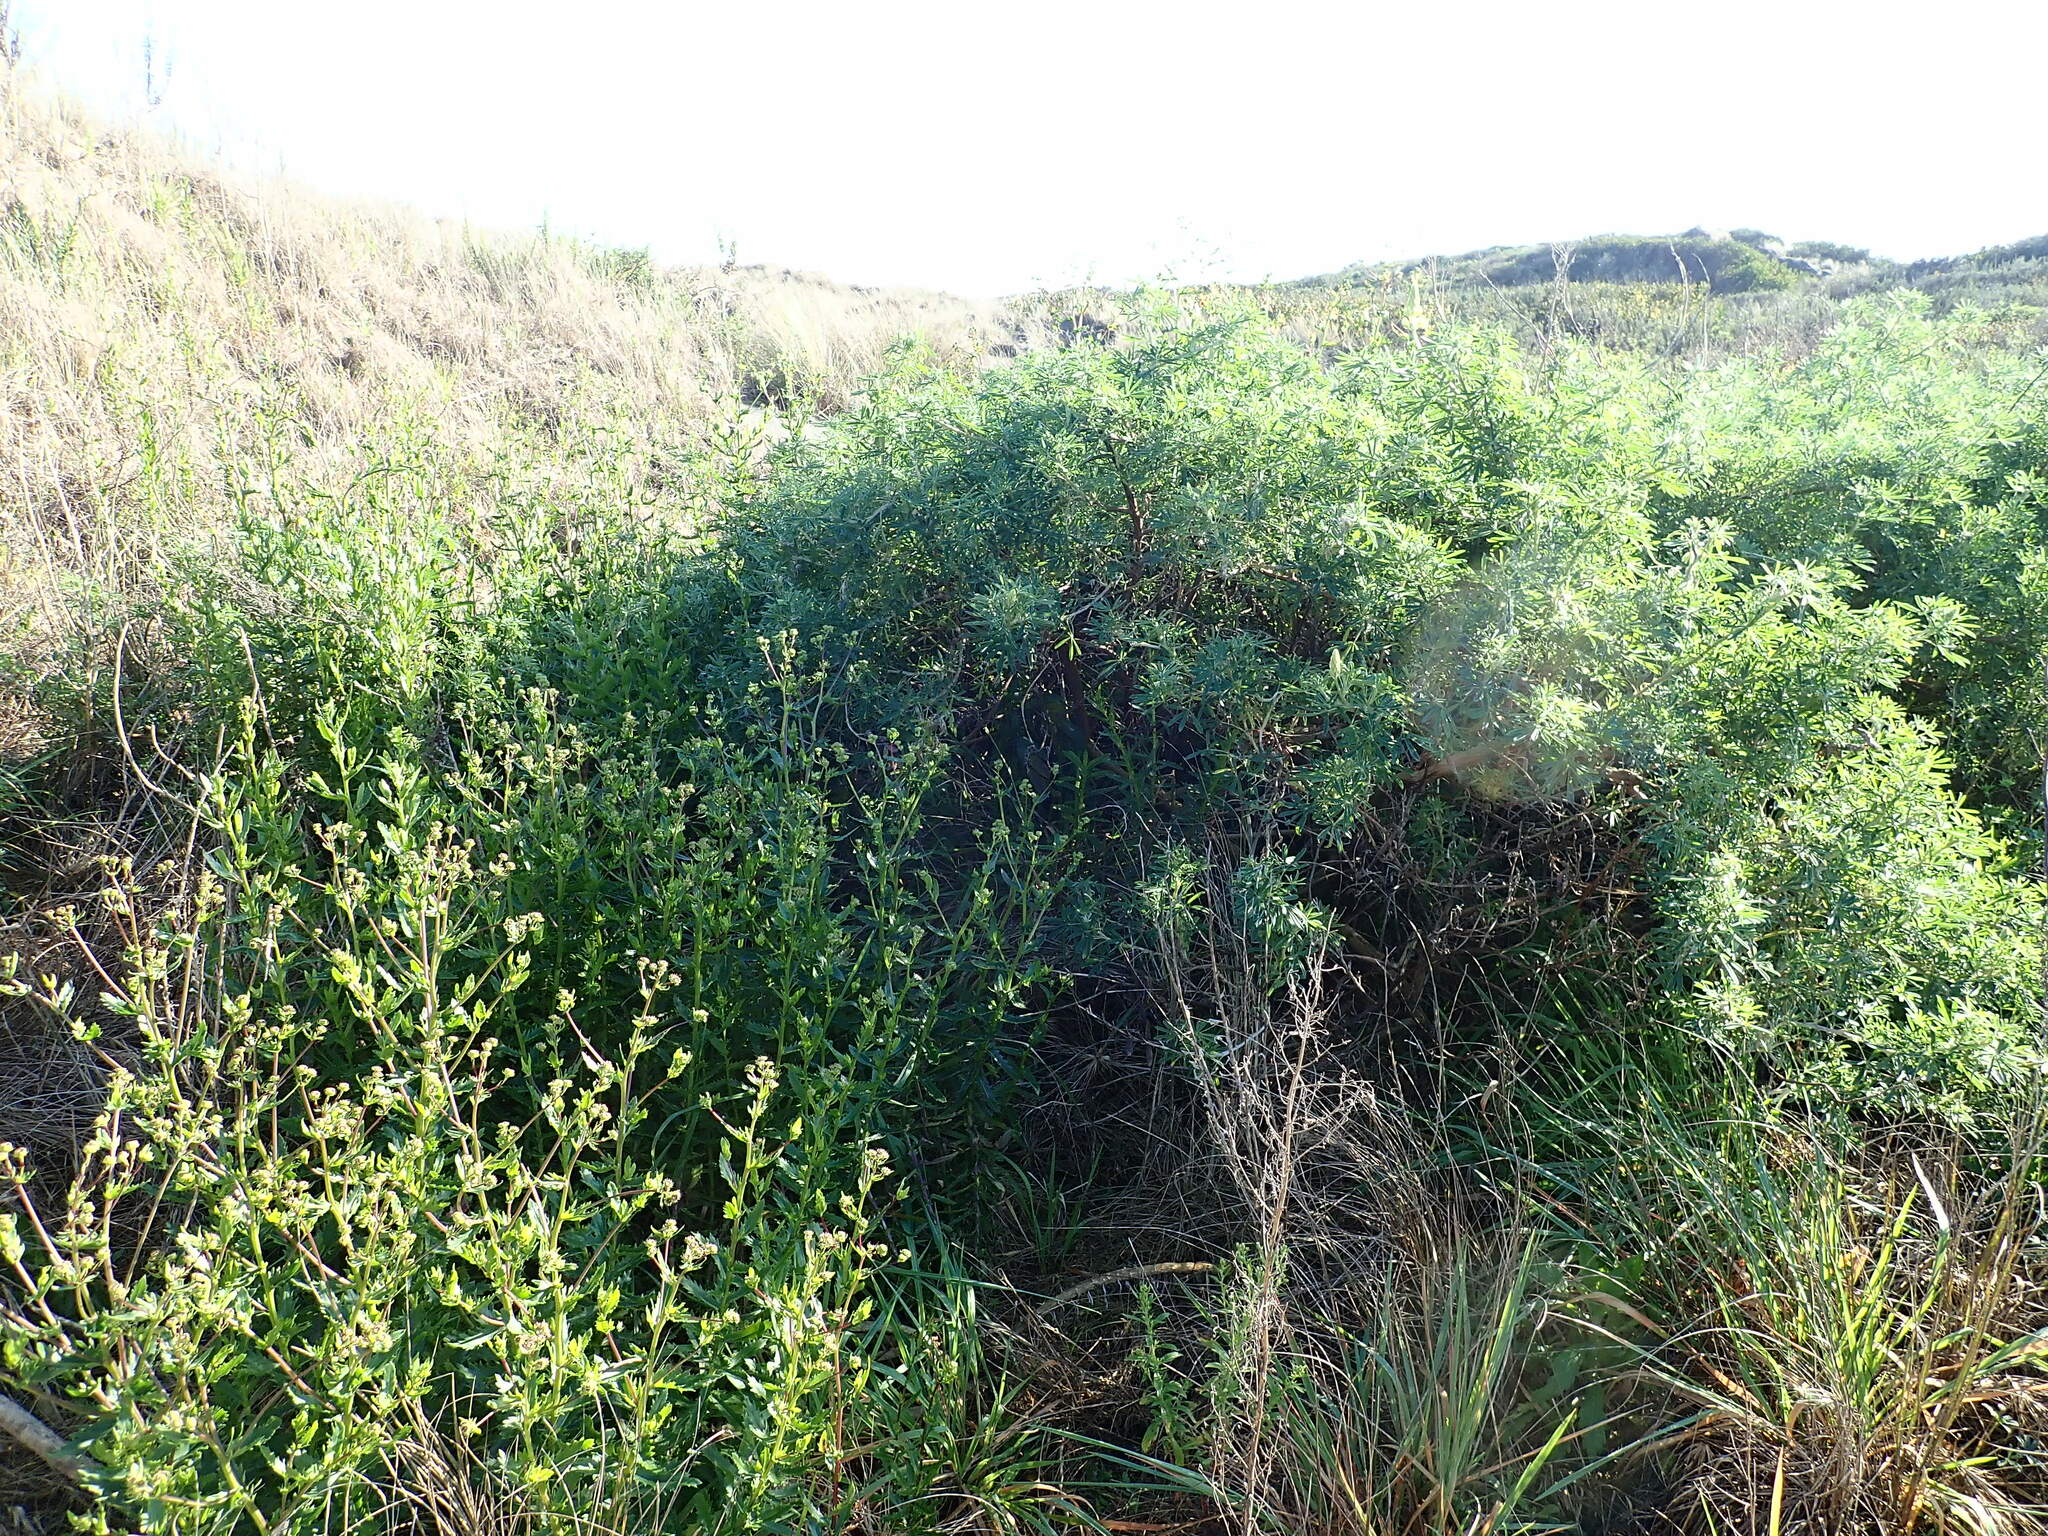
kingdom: Plantae
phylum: Tracheophyta
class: Magnoliopsida
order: Fabales
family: Fabaceae
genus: Lupinus
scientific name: Lupinus arboreus
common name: Yellow bush lupine
